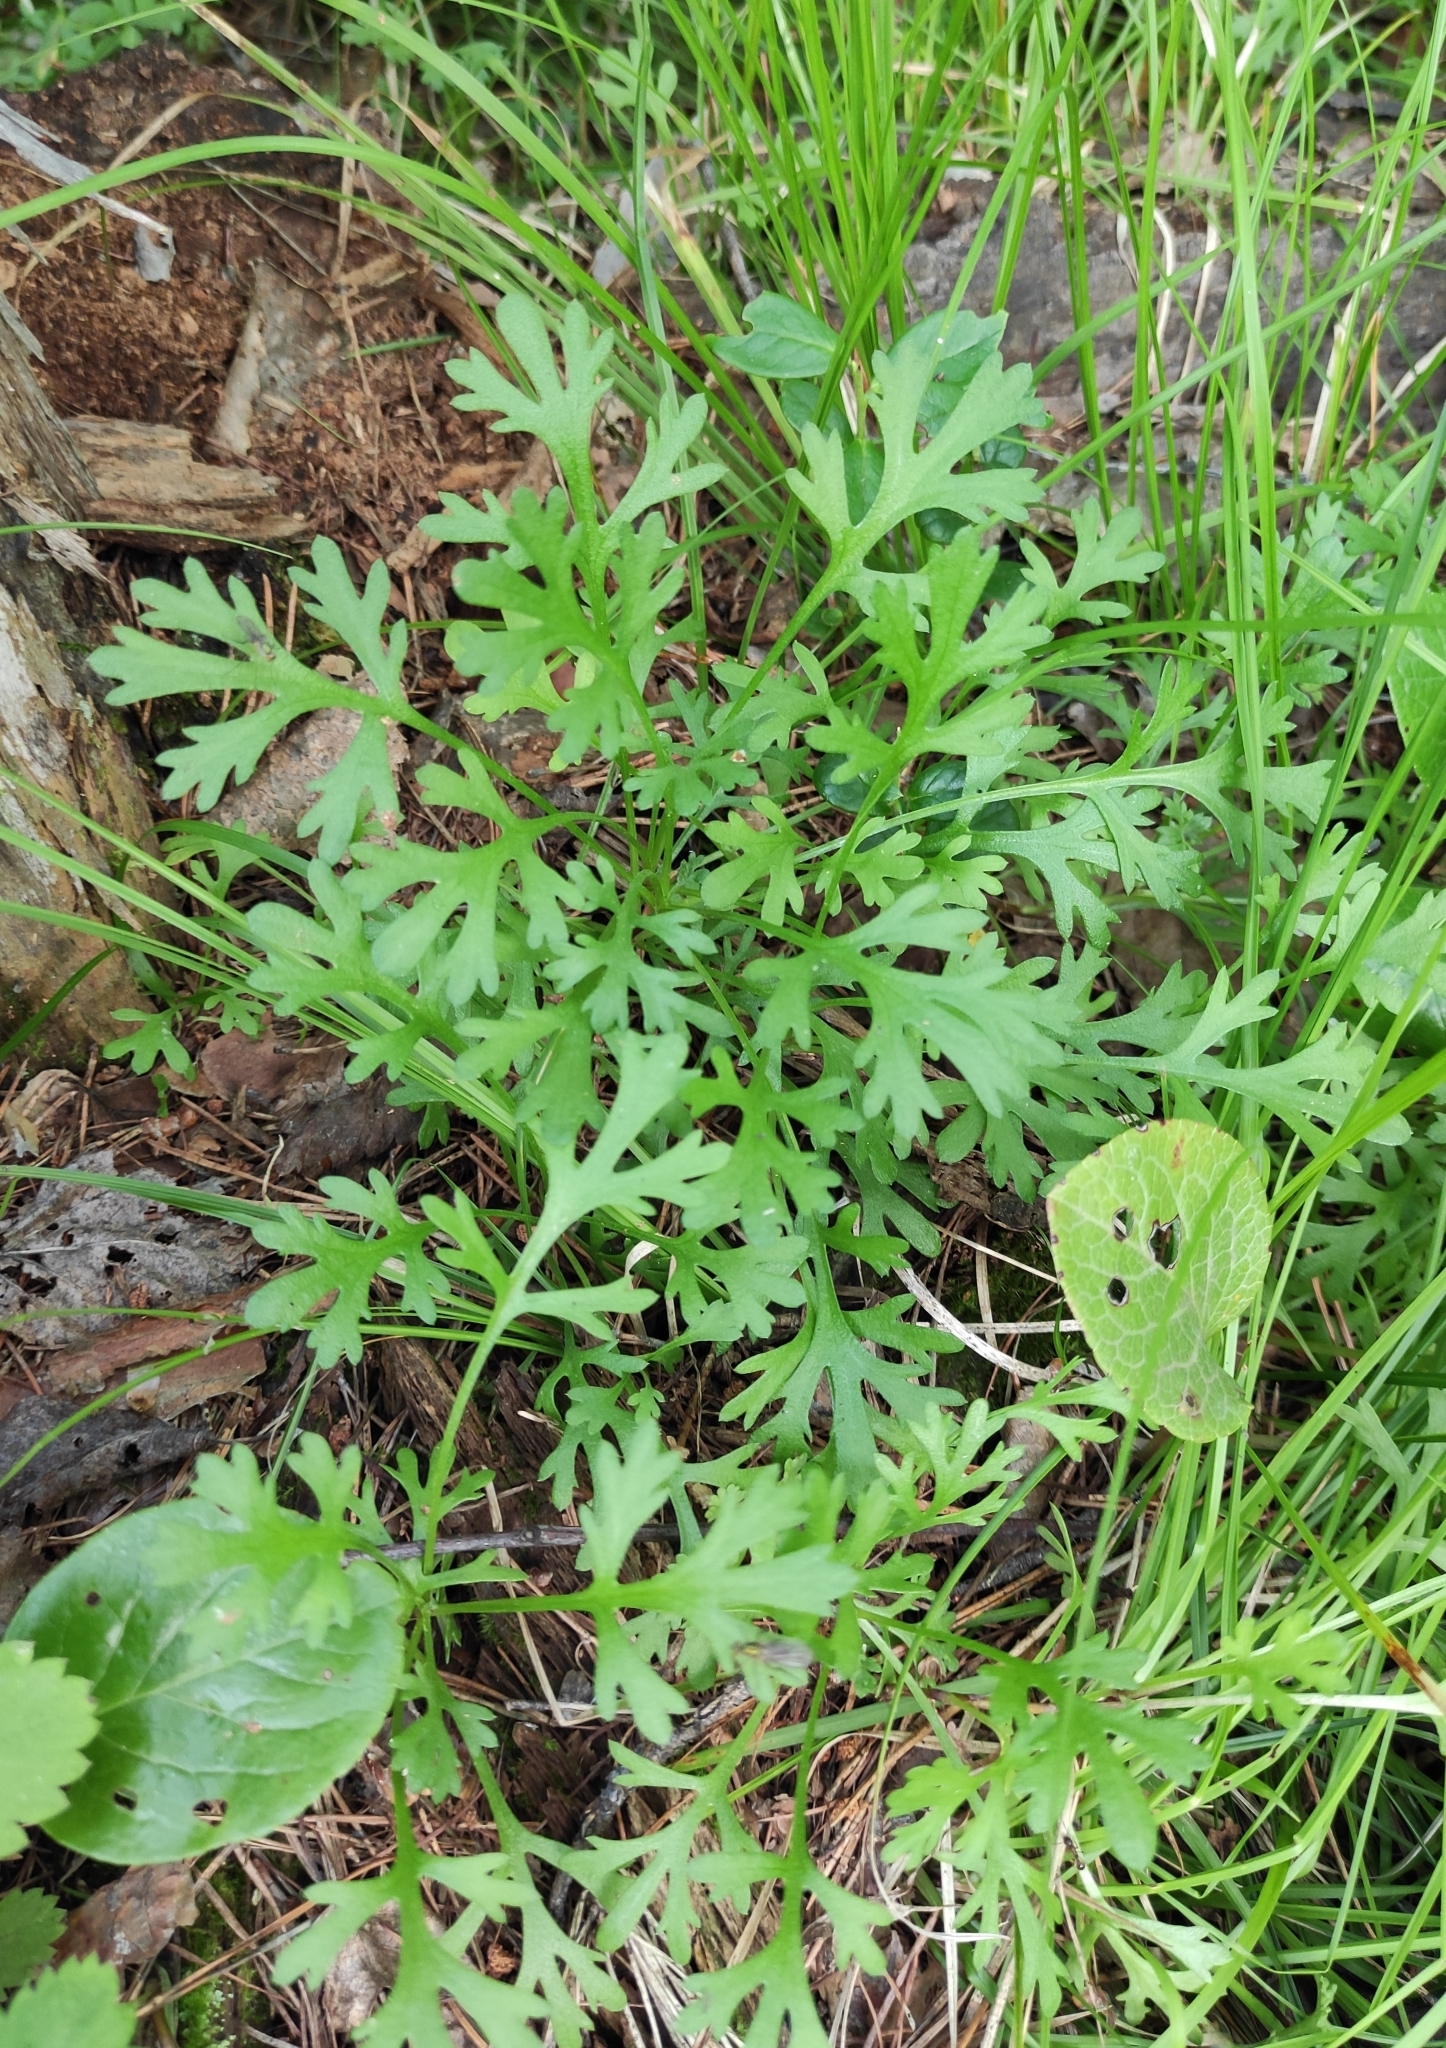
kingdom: Plantae
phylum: Tracheophyta
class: Magnoliopsida
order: Asterales
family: Asteraceae
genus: Chrysanthemum
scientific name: Chrysanthemum zawadzkii
